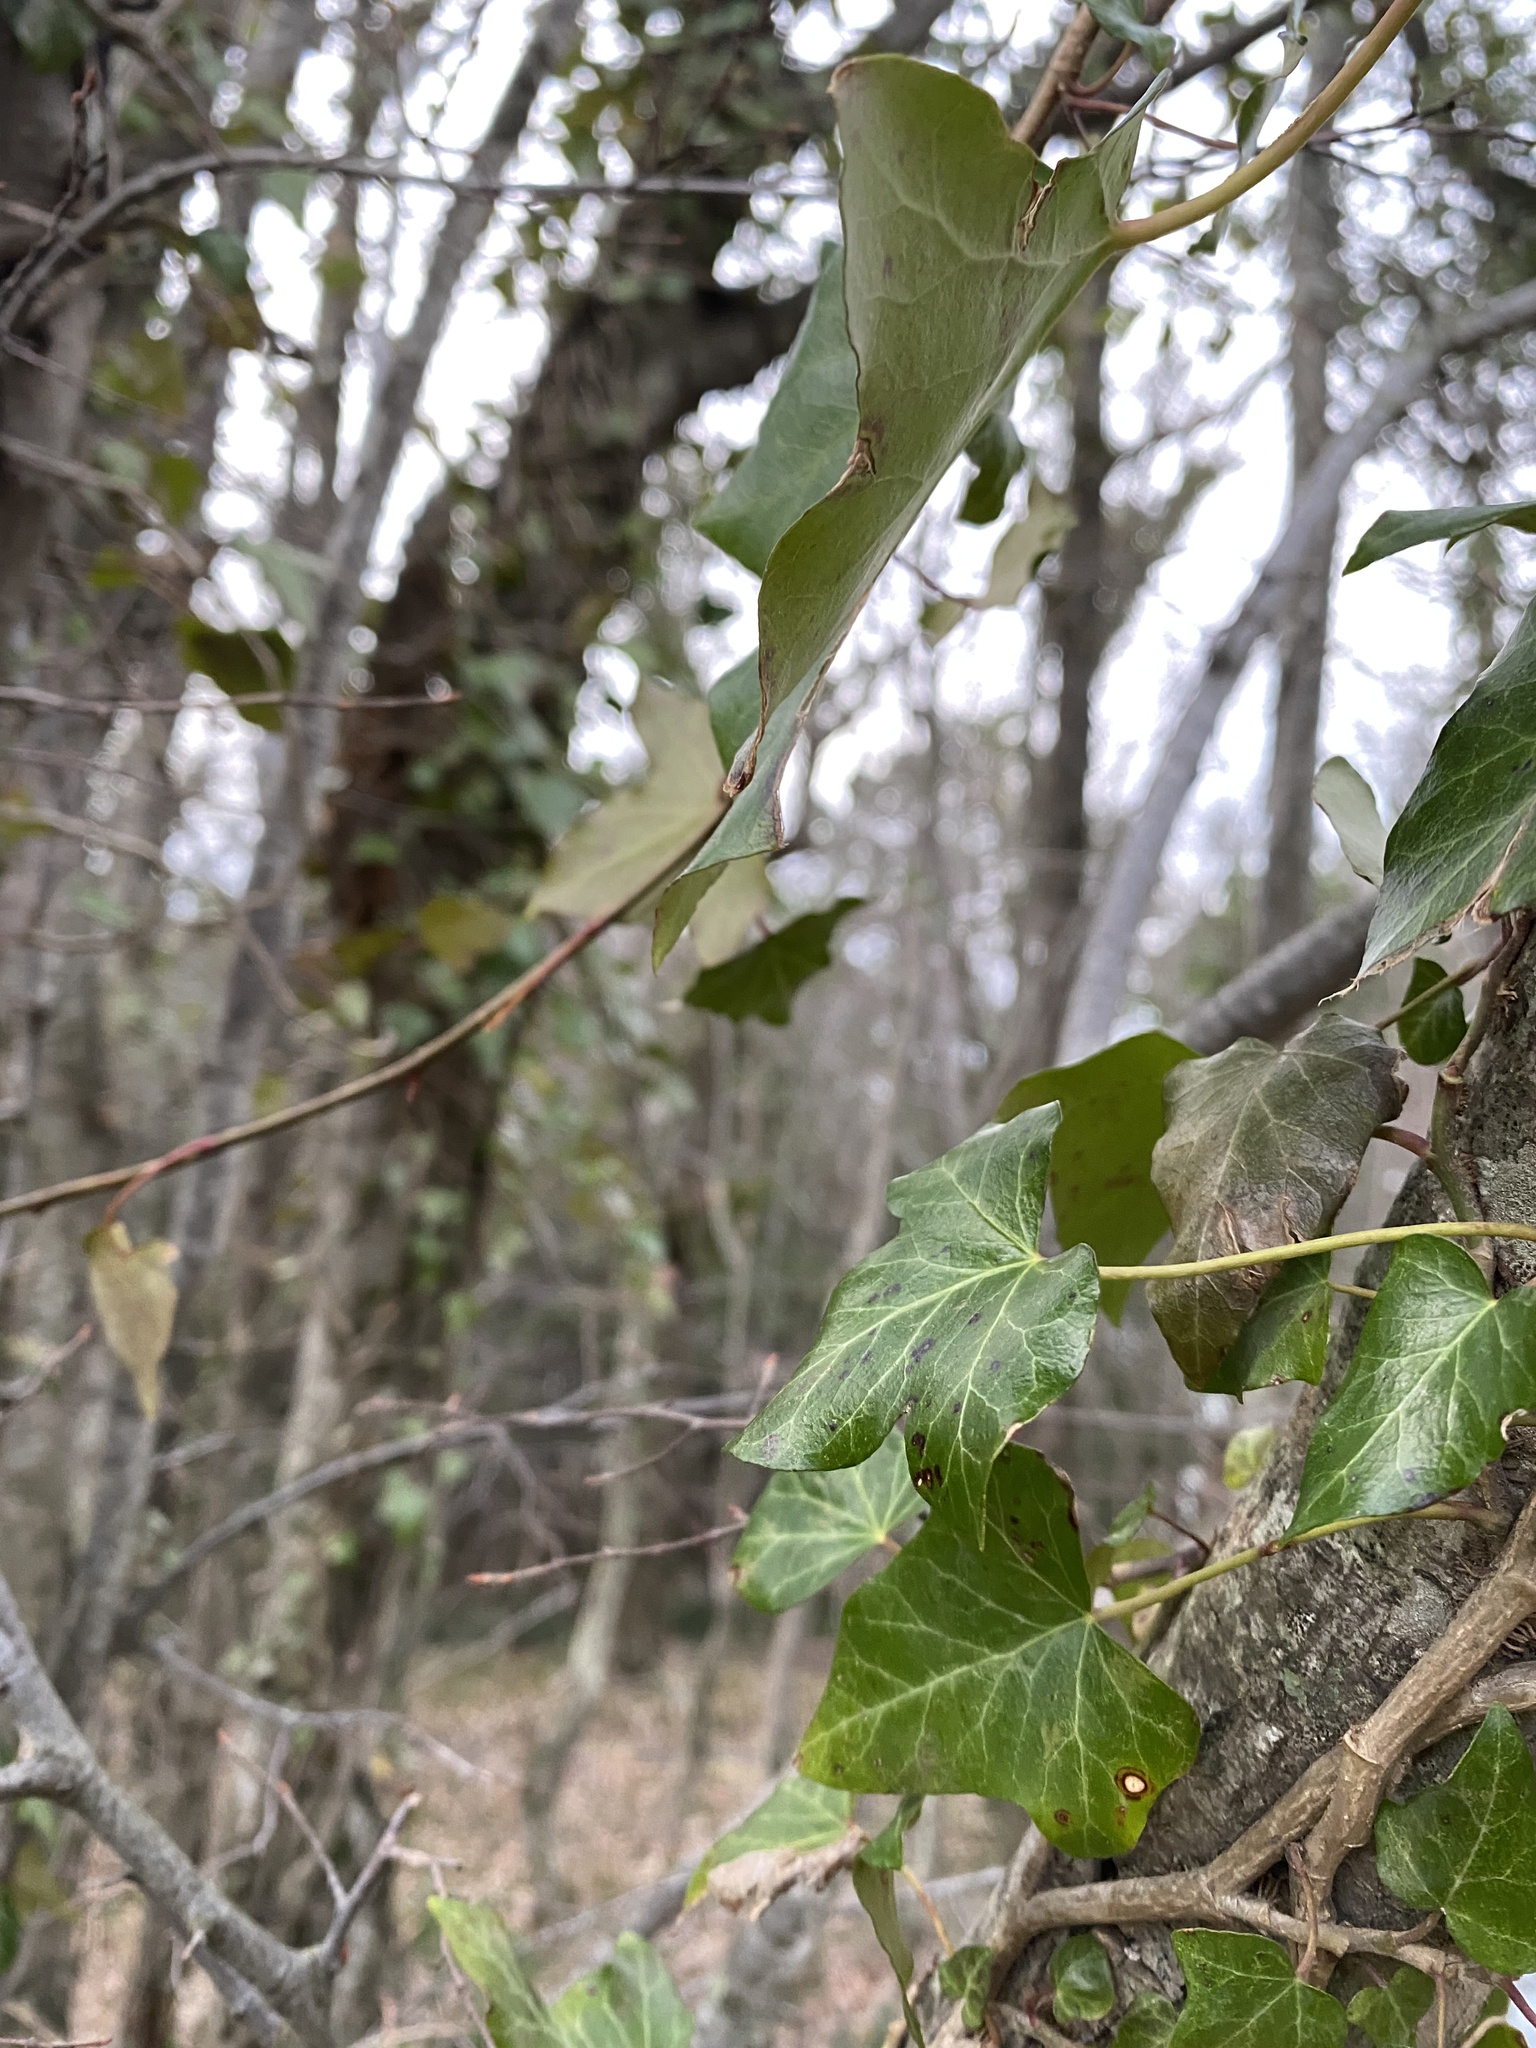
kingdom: Plantae
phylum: Tracheophyta
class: Magnoliopsida
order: Apiales
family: Araliaceae
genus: Hedera
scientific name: Hedera helix
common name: Ivy
